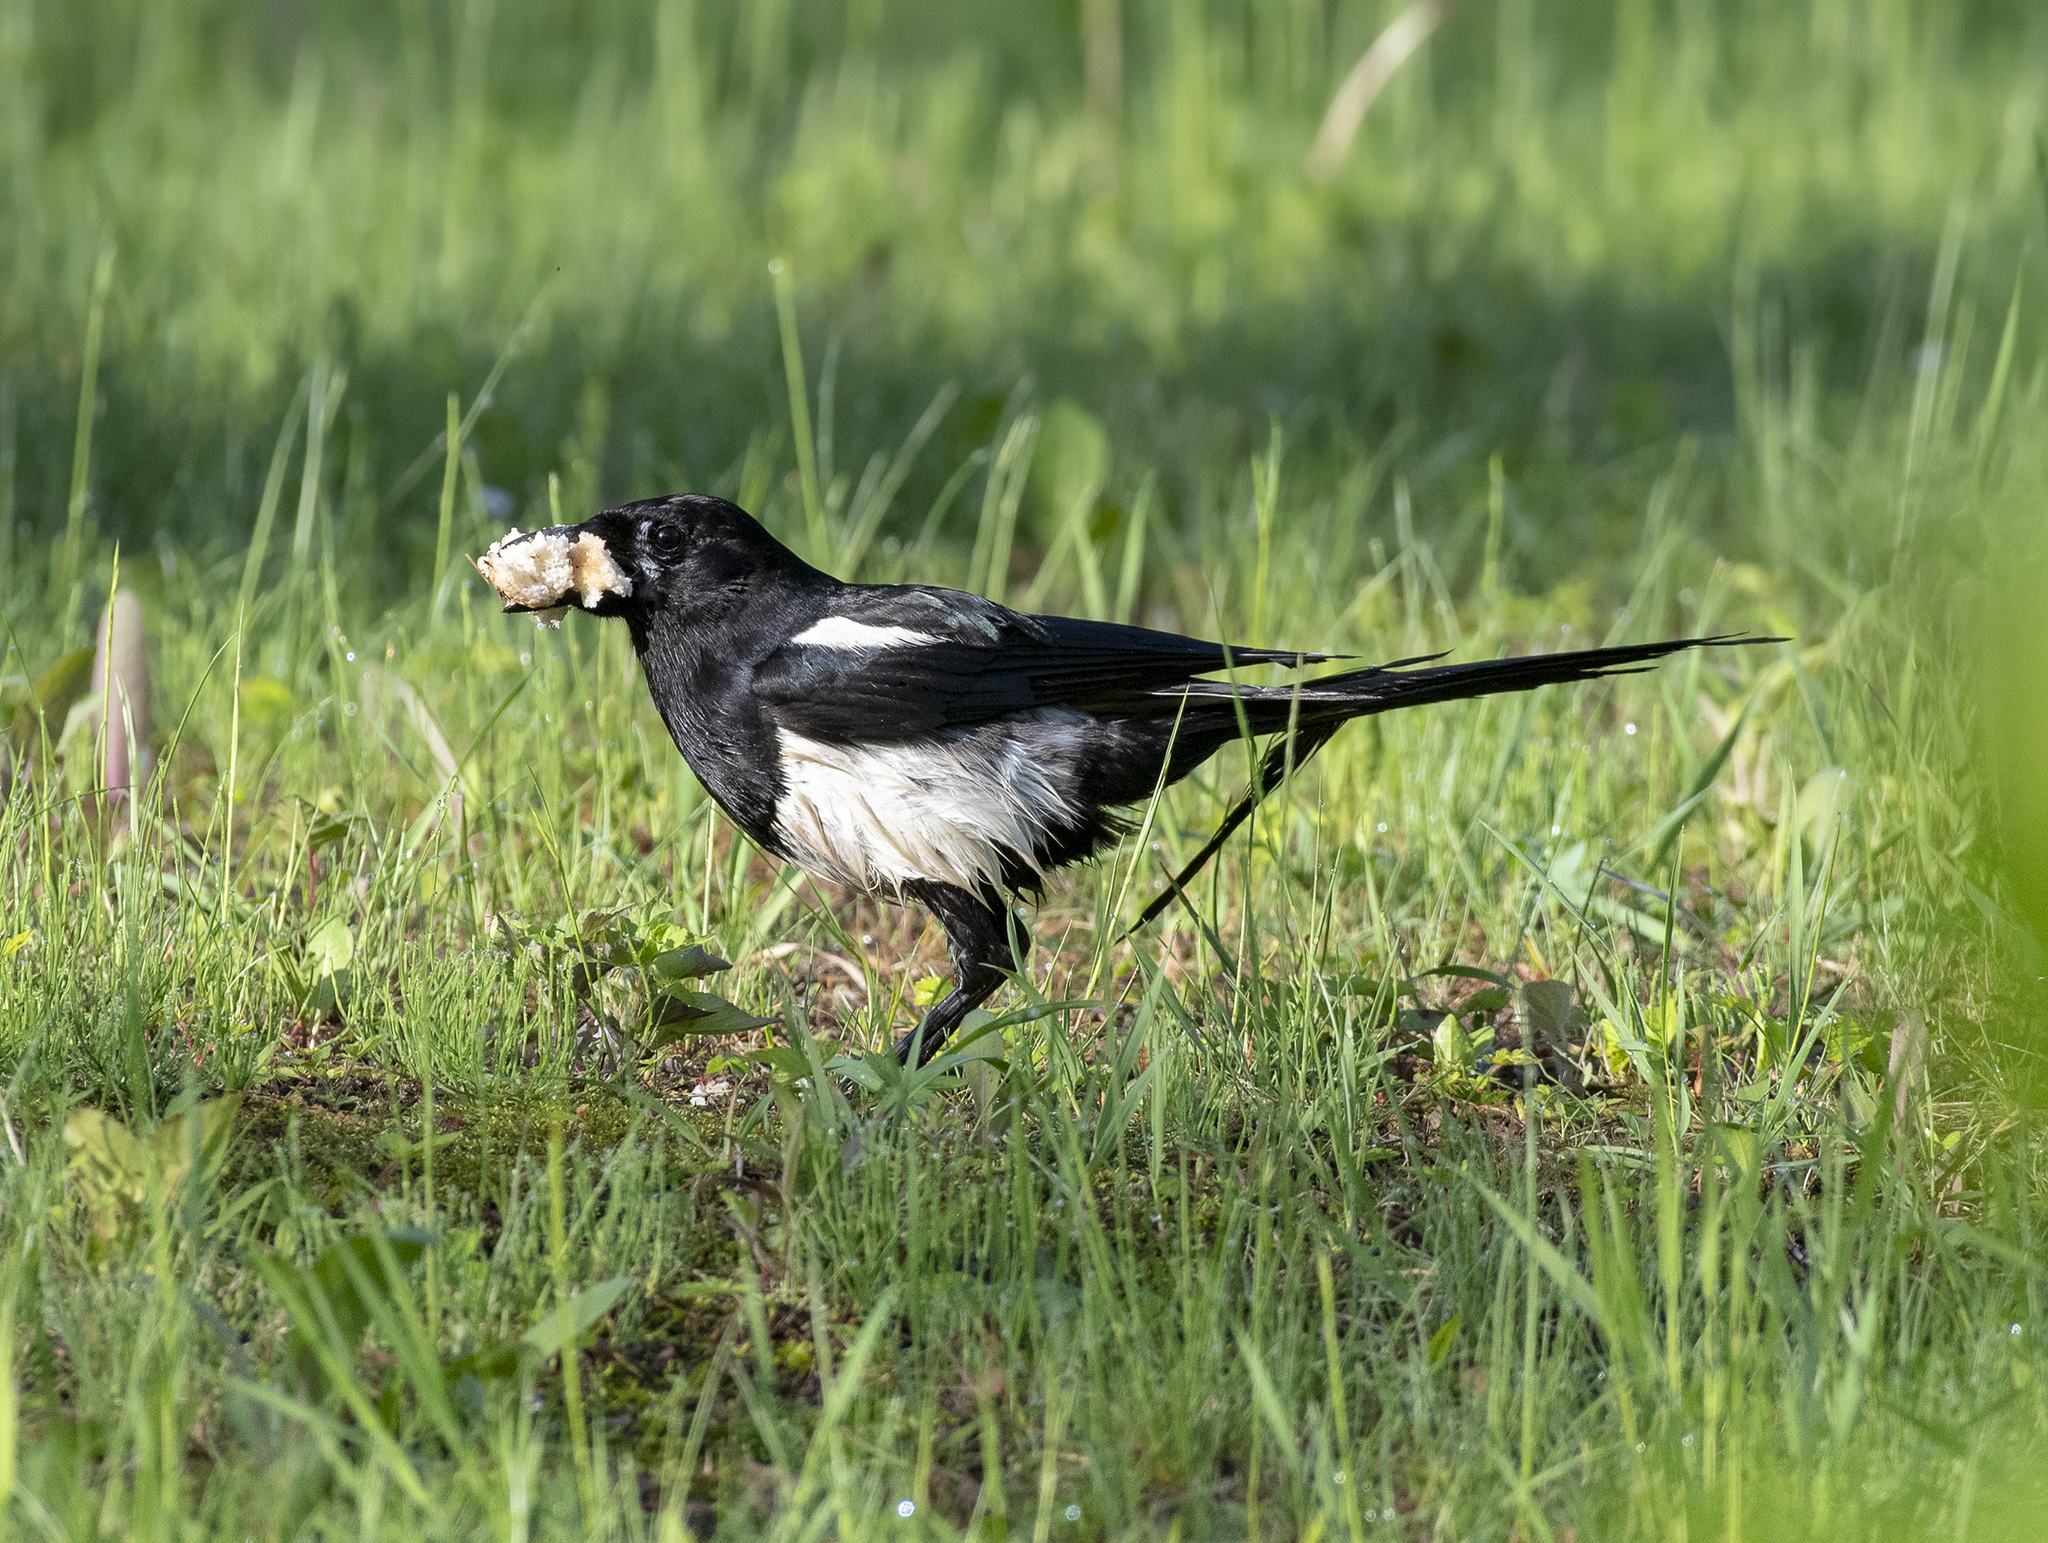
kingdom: Animalia
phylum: Chordata
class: Aves
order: Passeriformes
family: Corvidae
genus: Pica
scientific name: Pica serica
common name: Oriental magpie
